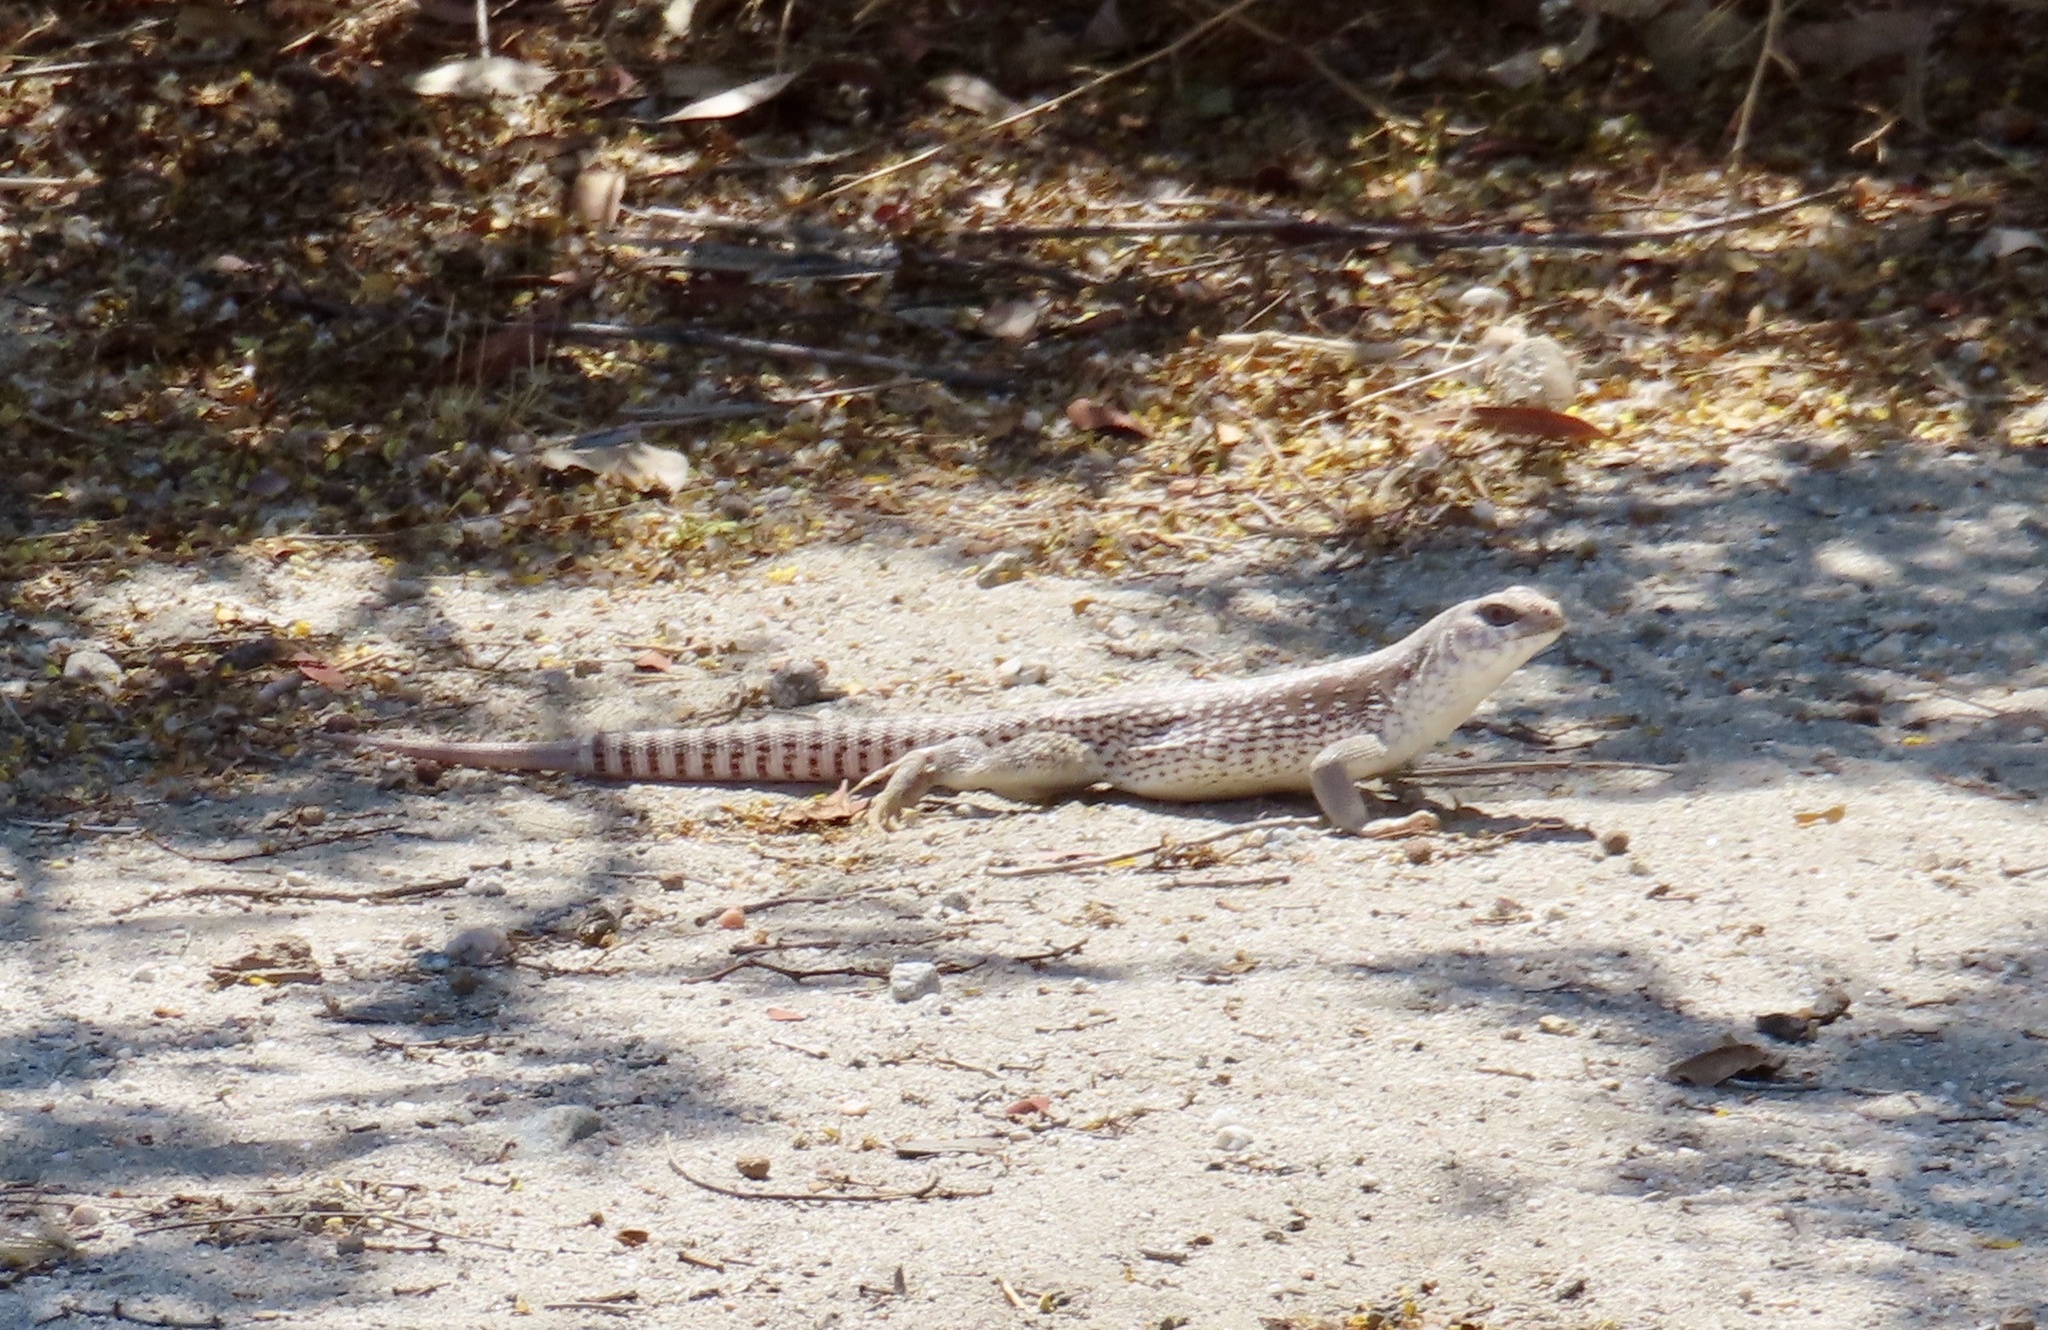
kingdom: Animalia
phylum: Chordata
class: Squamata
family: Iguanidae
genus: Dipsosaurus
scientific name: Dipsosaurus dorsalis
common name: Desert iguana
